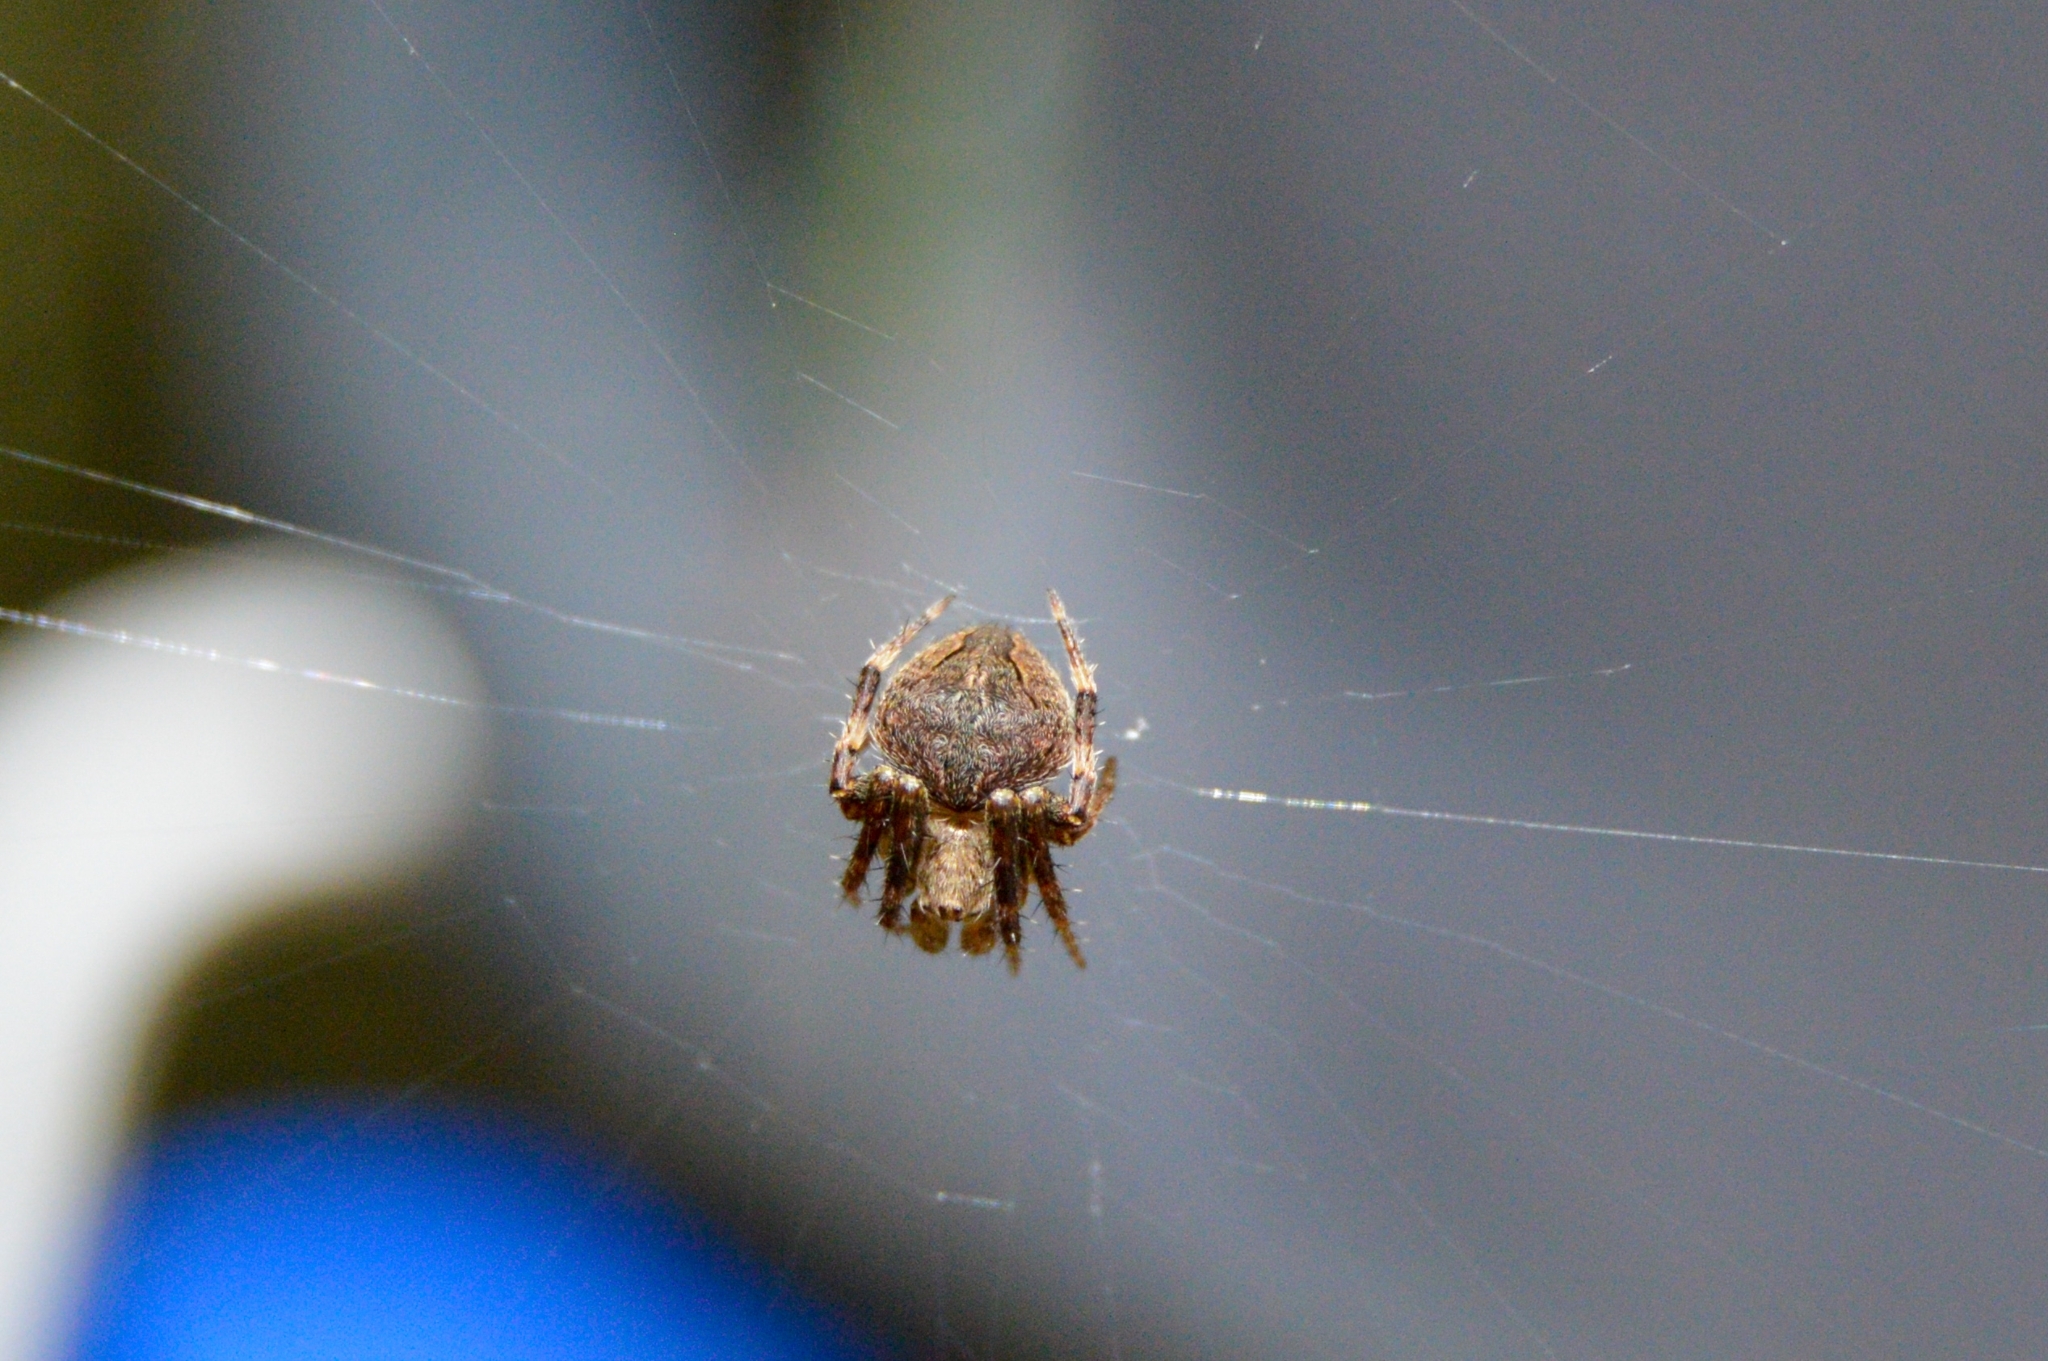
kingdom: Animalia
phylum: Arthropoda
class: Arachnida
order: Araneae
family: Araneidae
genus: Neoscona
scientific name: Neoscona subfusca
